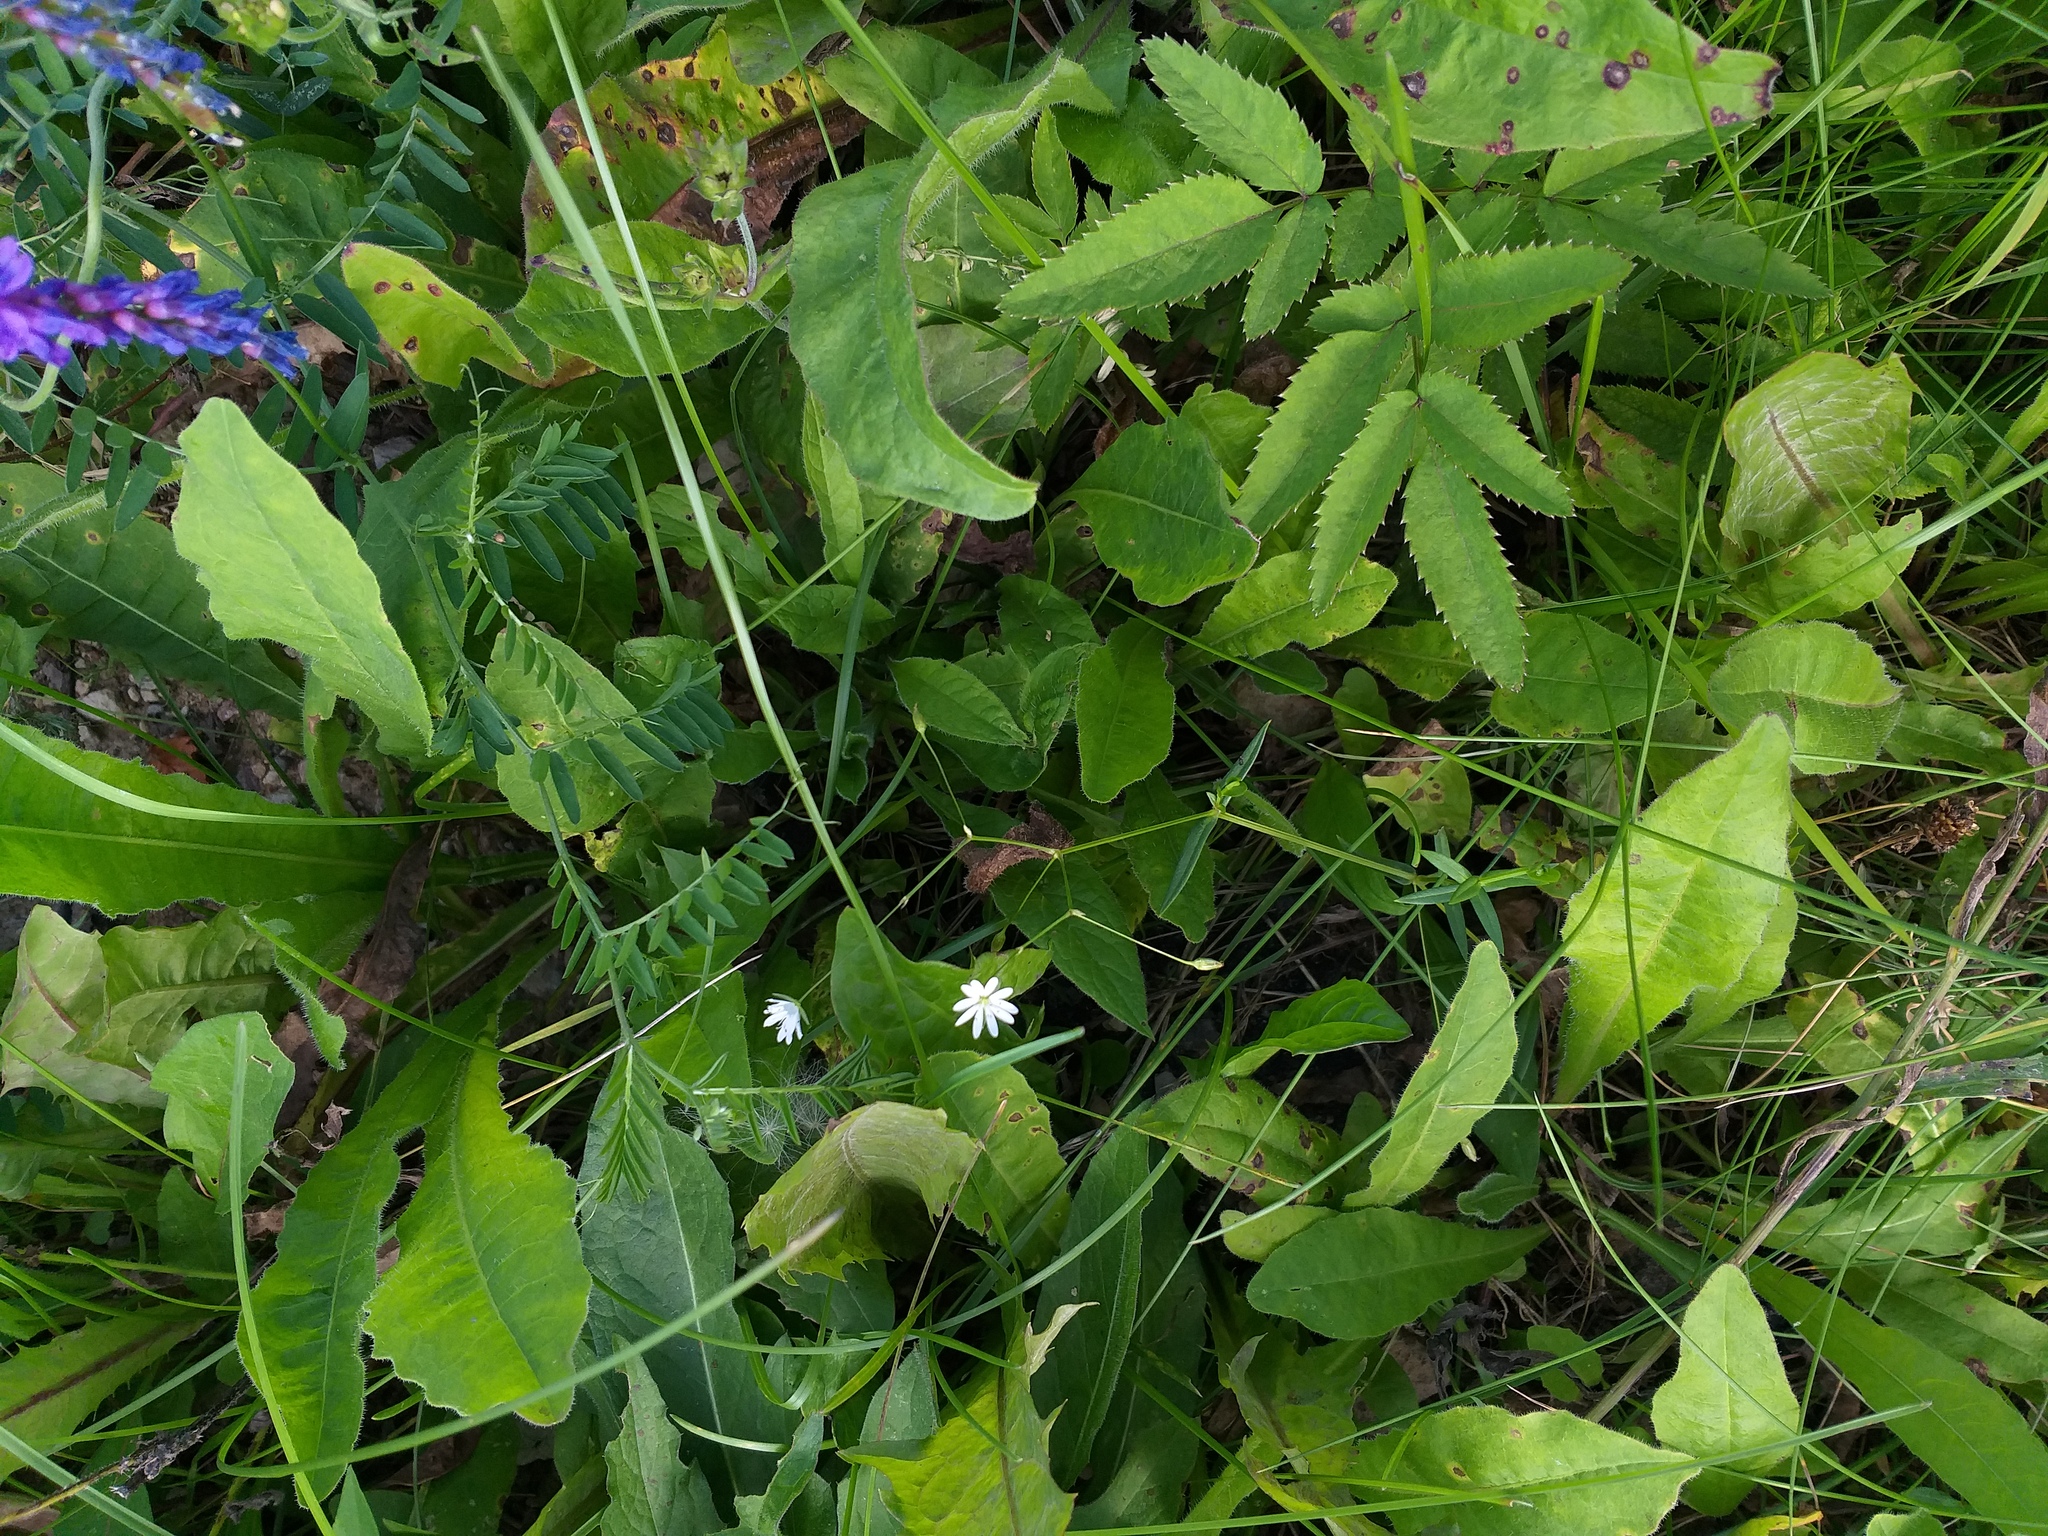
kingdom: Plantae
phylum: Tracheophyta
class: Magnoliopsida
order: Caryophyllales
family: Caryophyllaceae
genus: Stellaria
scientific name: Stellaria graminea
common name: Grass-like starwort
